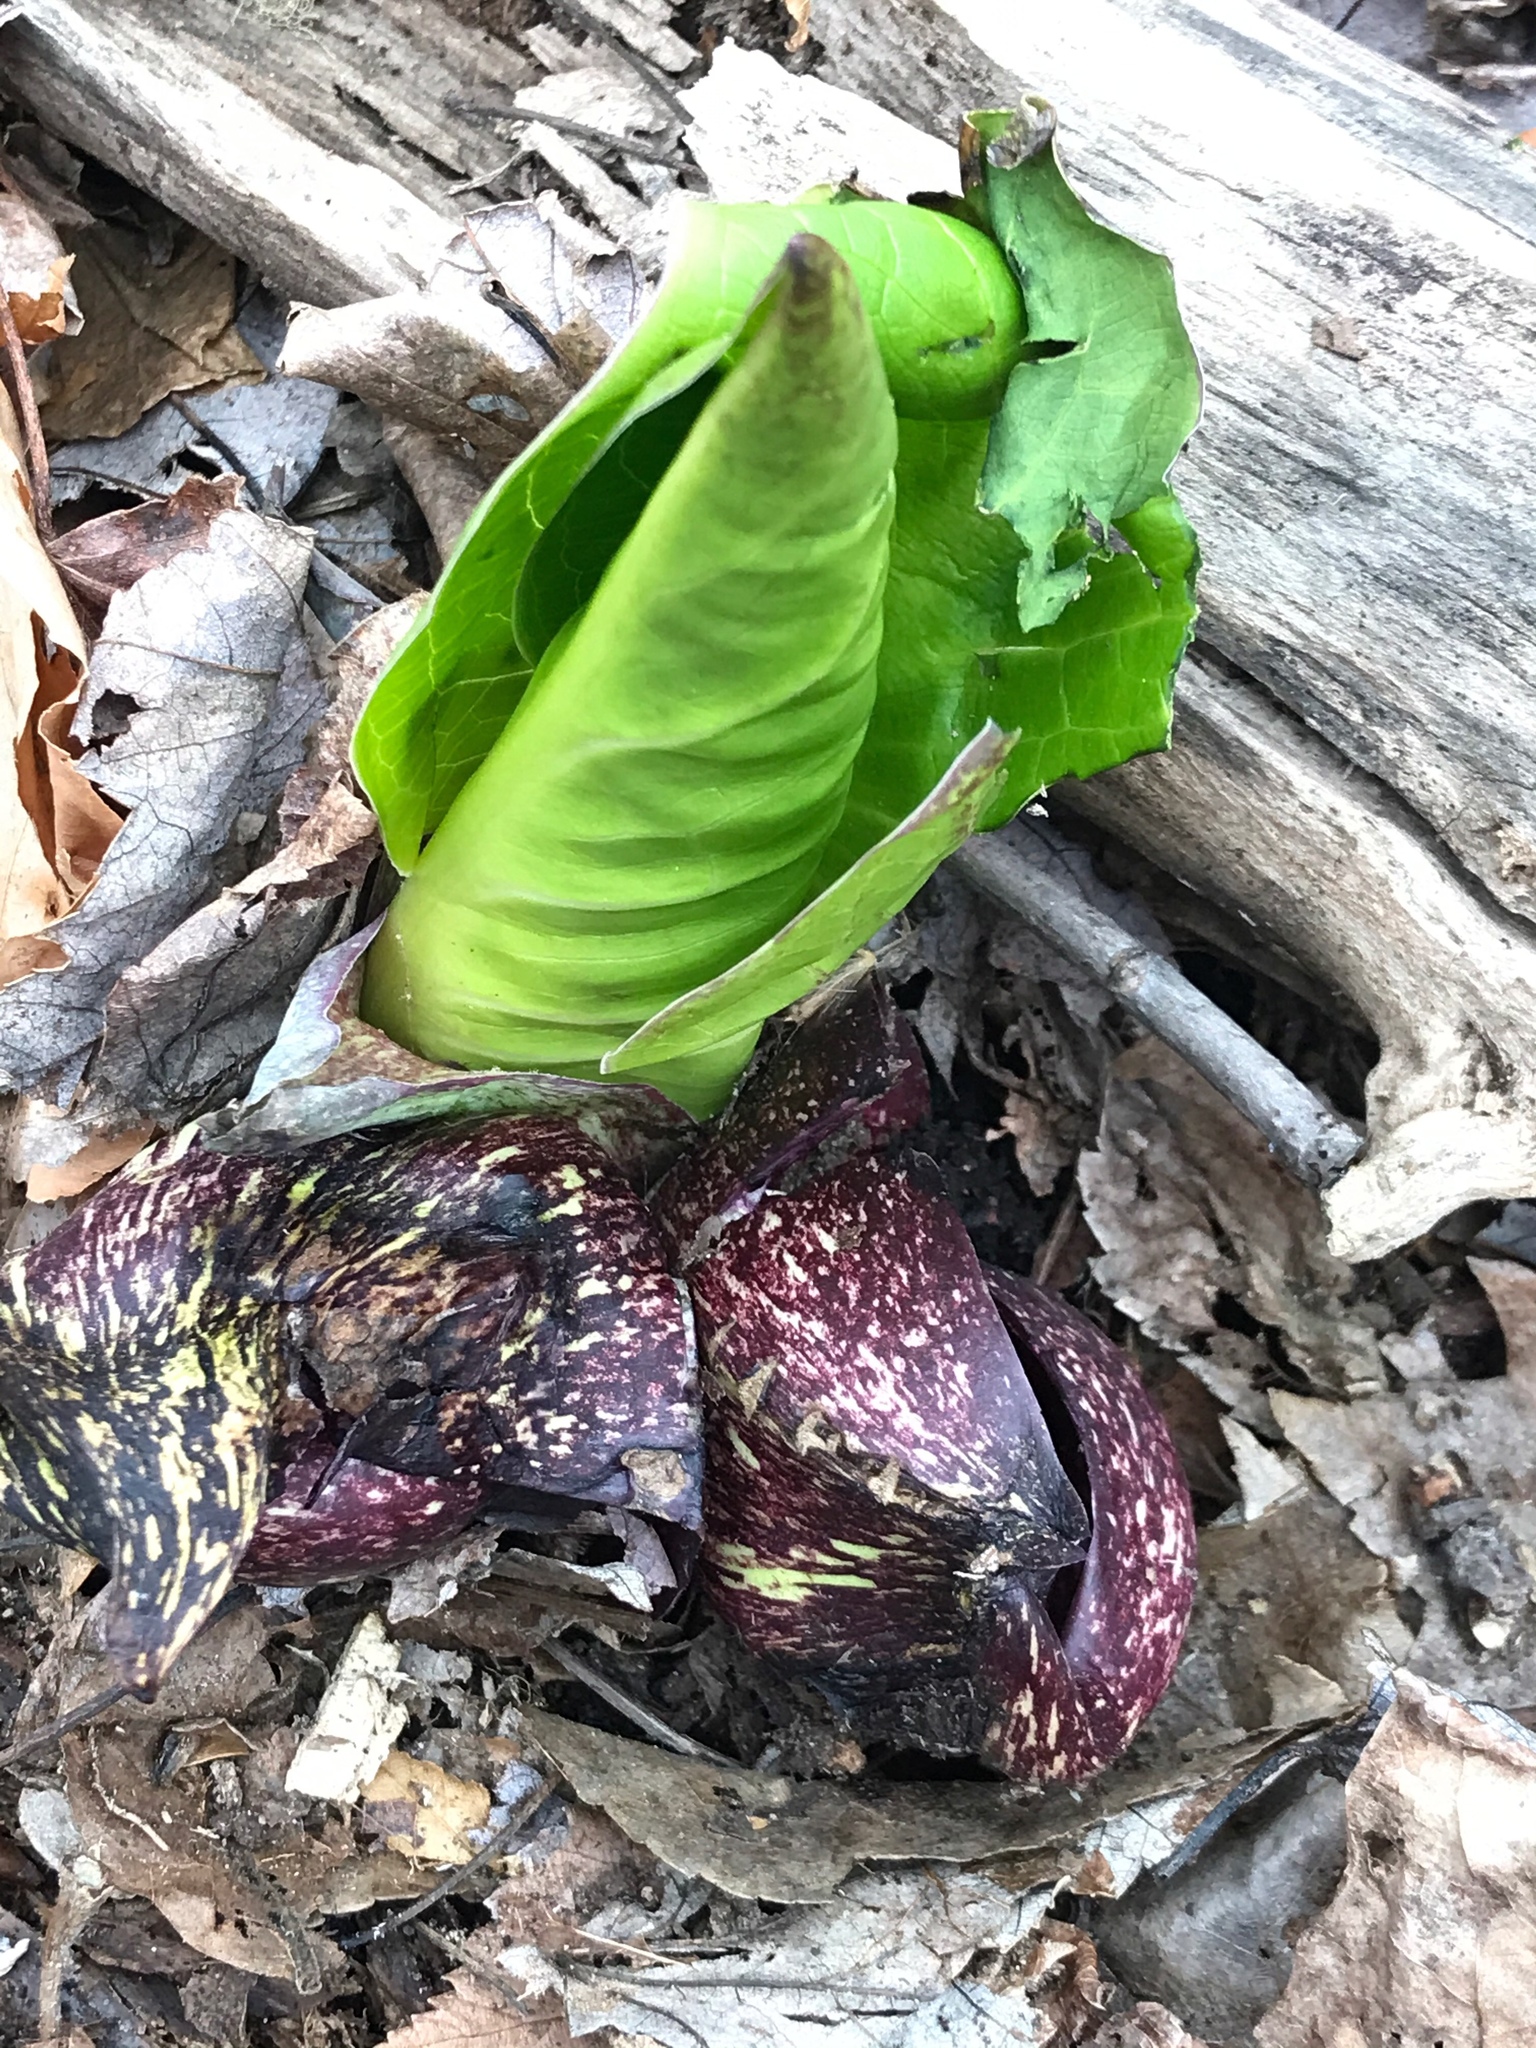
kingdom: Plantae
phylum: Tracheophyta
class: Liliopsida
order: Alismatales
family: Araceae
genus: Symplocarpus
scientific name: Symplocarpus foetidus
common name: Eastern skunk cabbage
